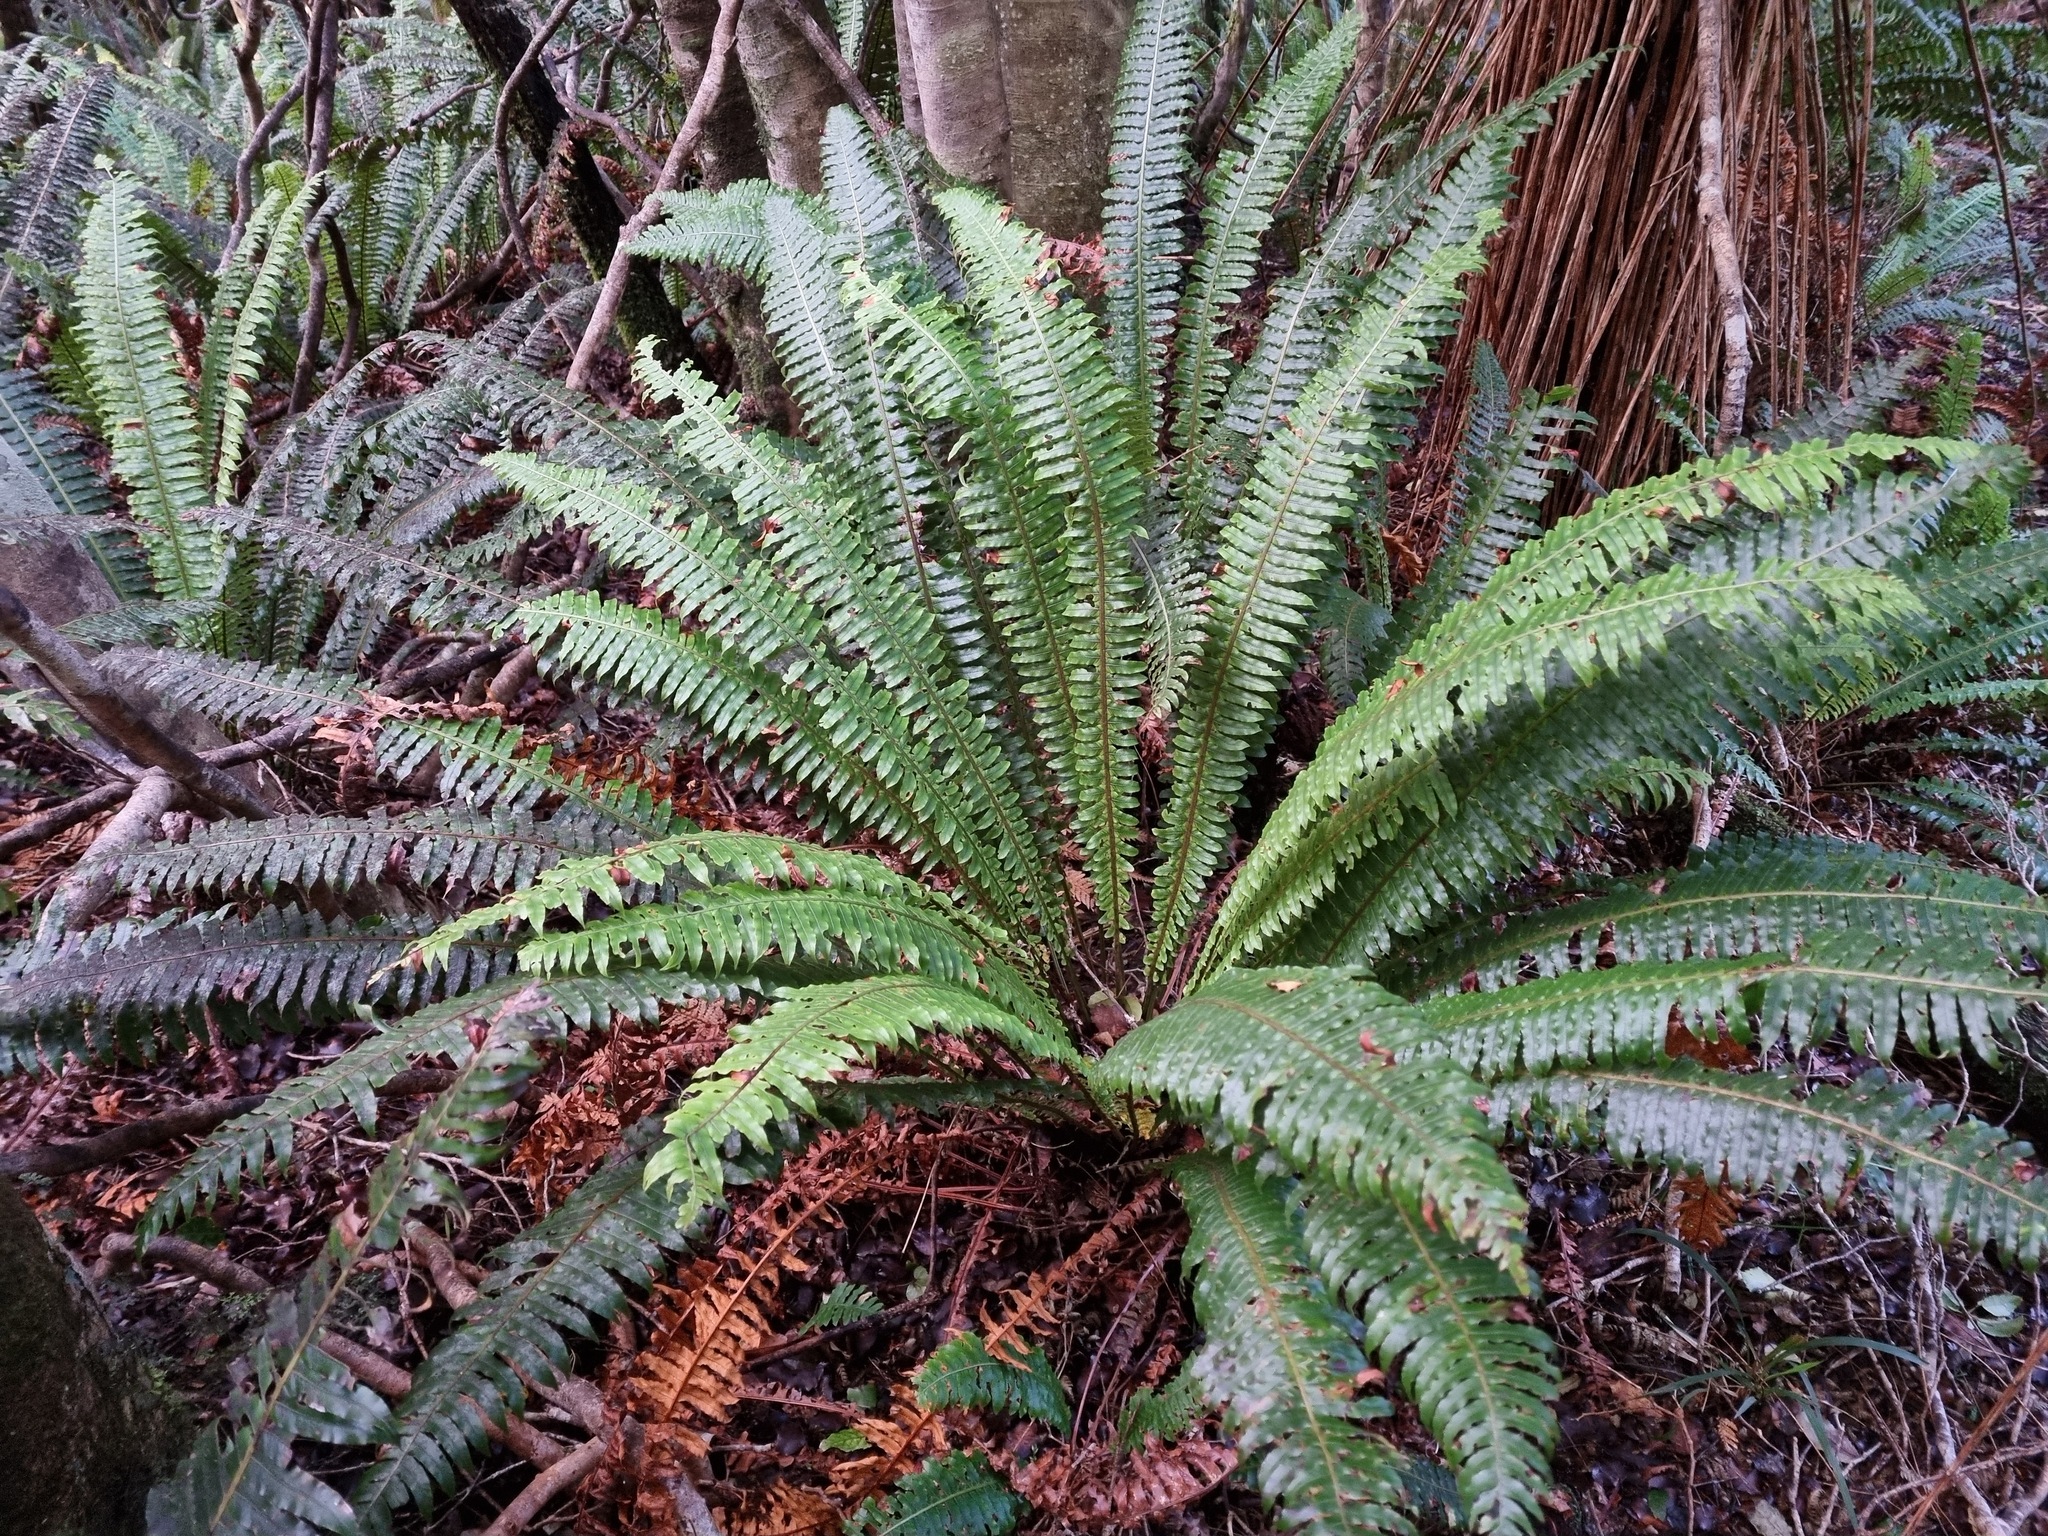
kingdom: Plantae
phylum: Tracheophyta
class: Polypodiopsida
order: Polypodiales
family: Blechnaceae
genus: Lomaria
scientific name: Lomaria discolor
